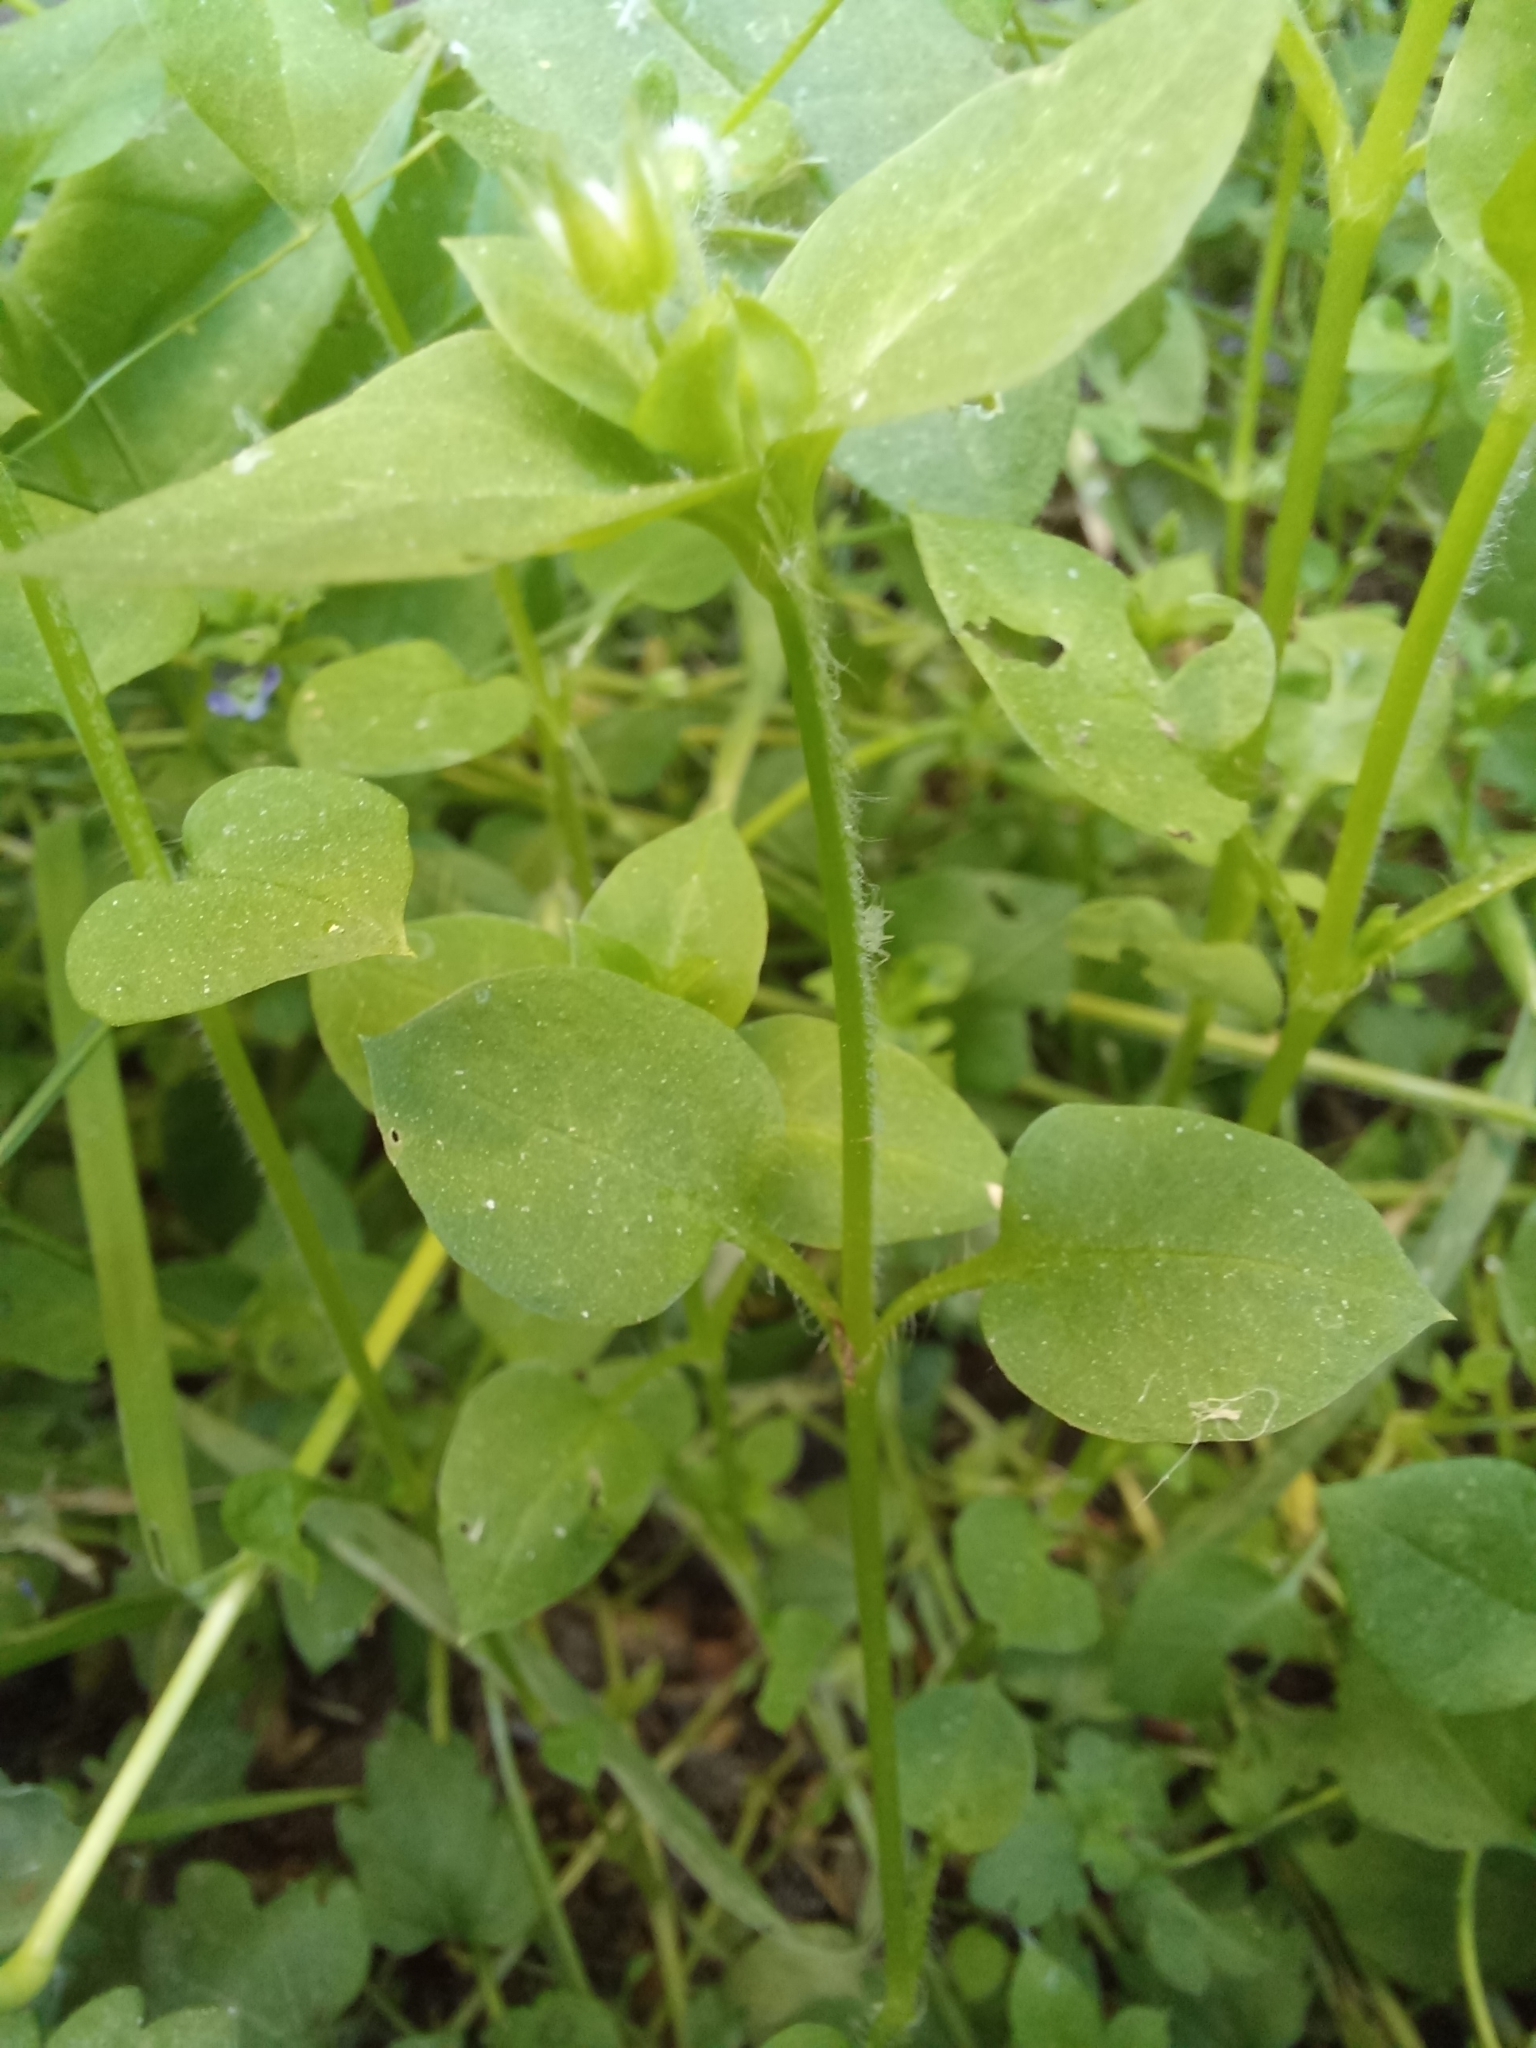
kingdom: Plantae
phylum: Tracheophyta
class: Magnoliopsida
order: Caryophyllales
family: Caryophyllaceae
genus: Stellaria
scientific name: Stellaria media
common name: Common chickweed
